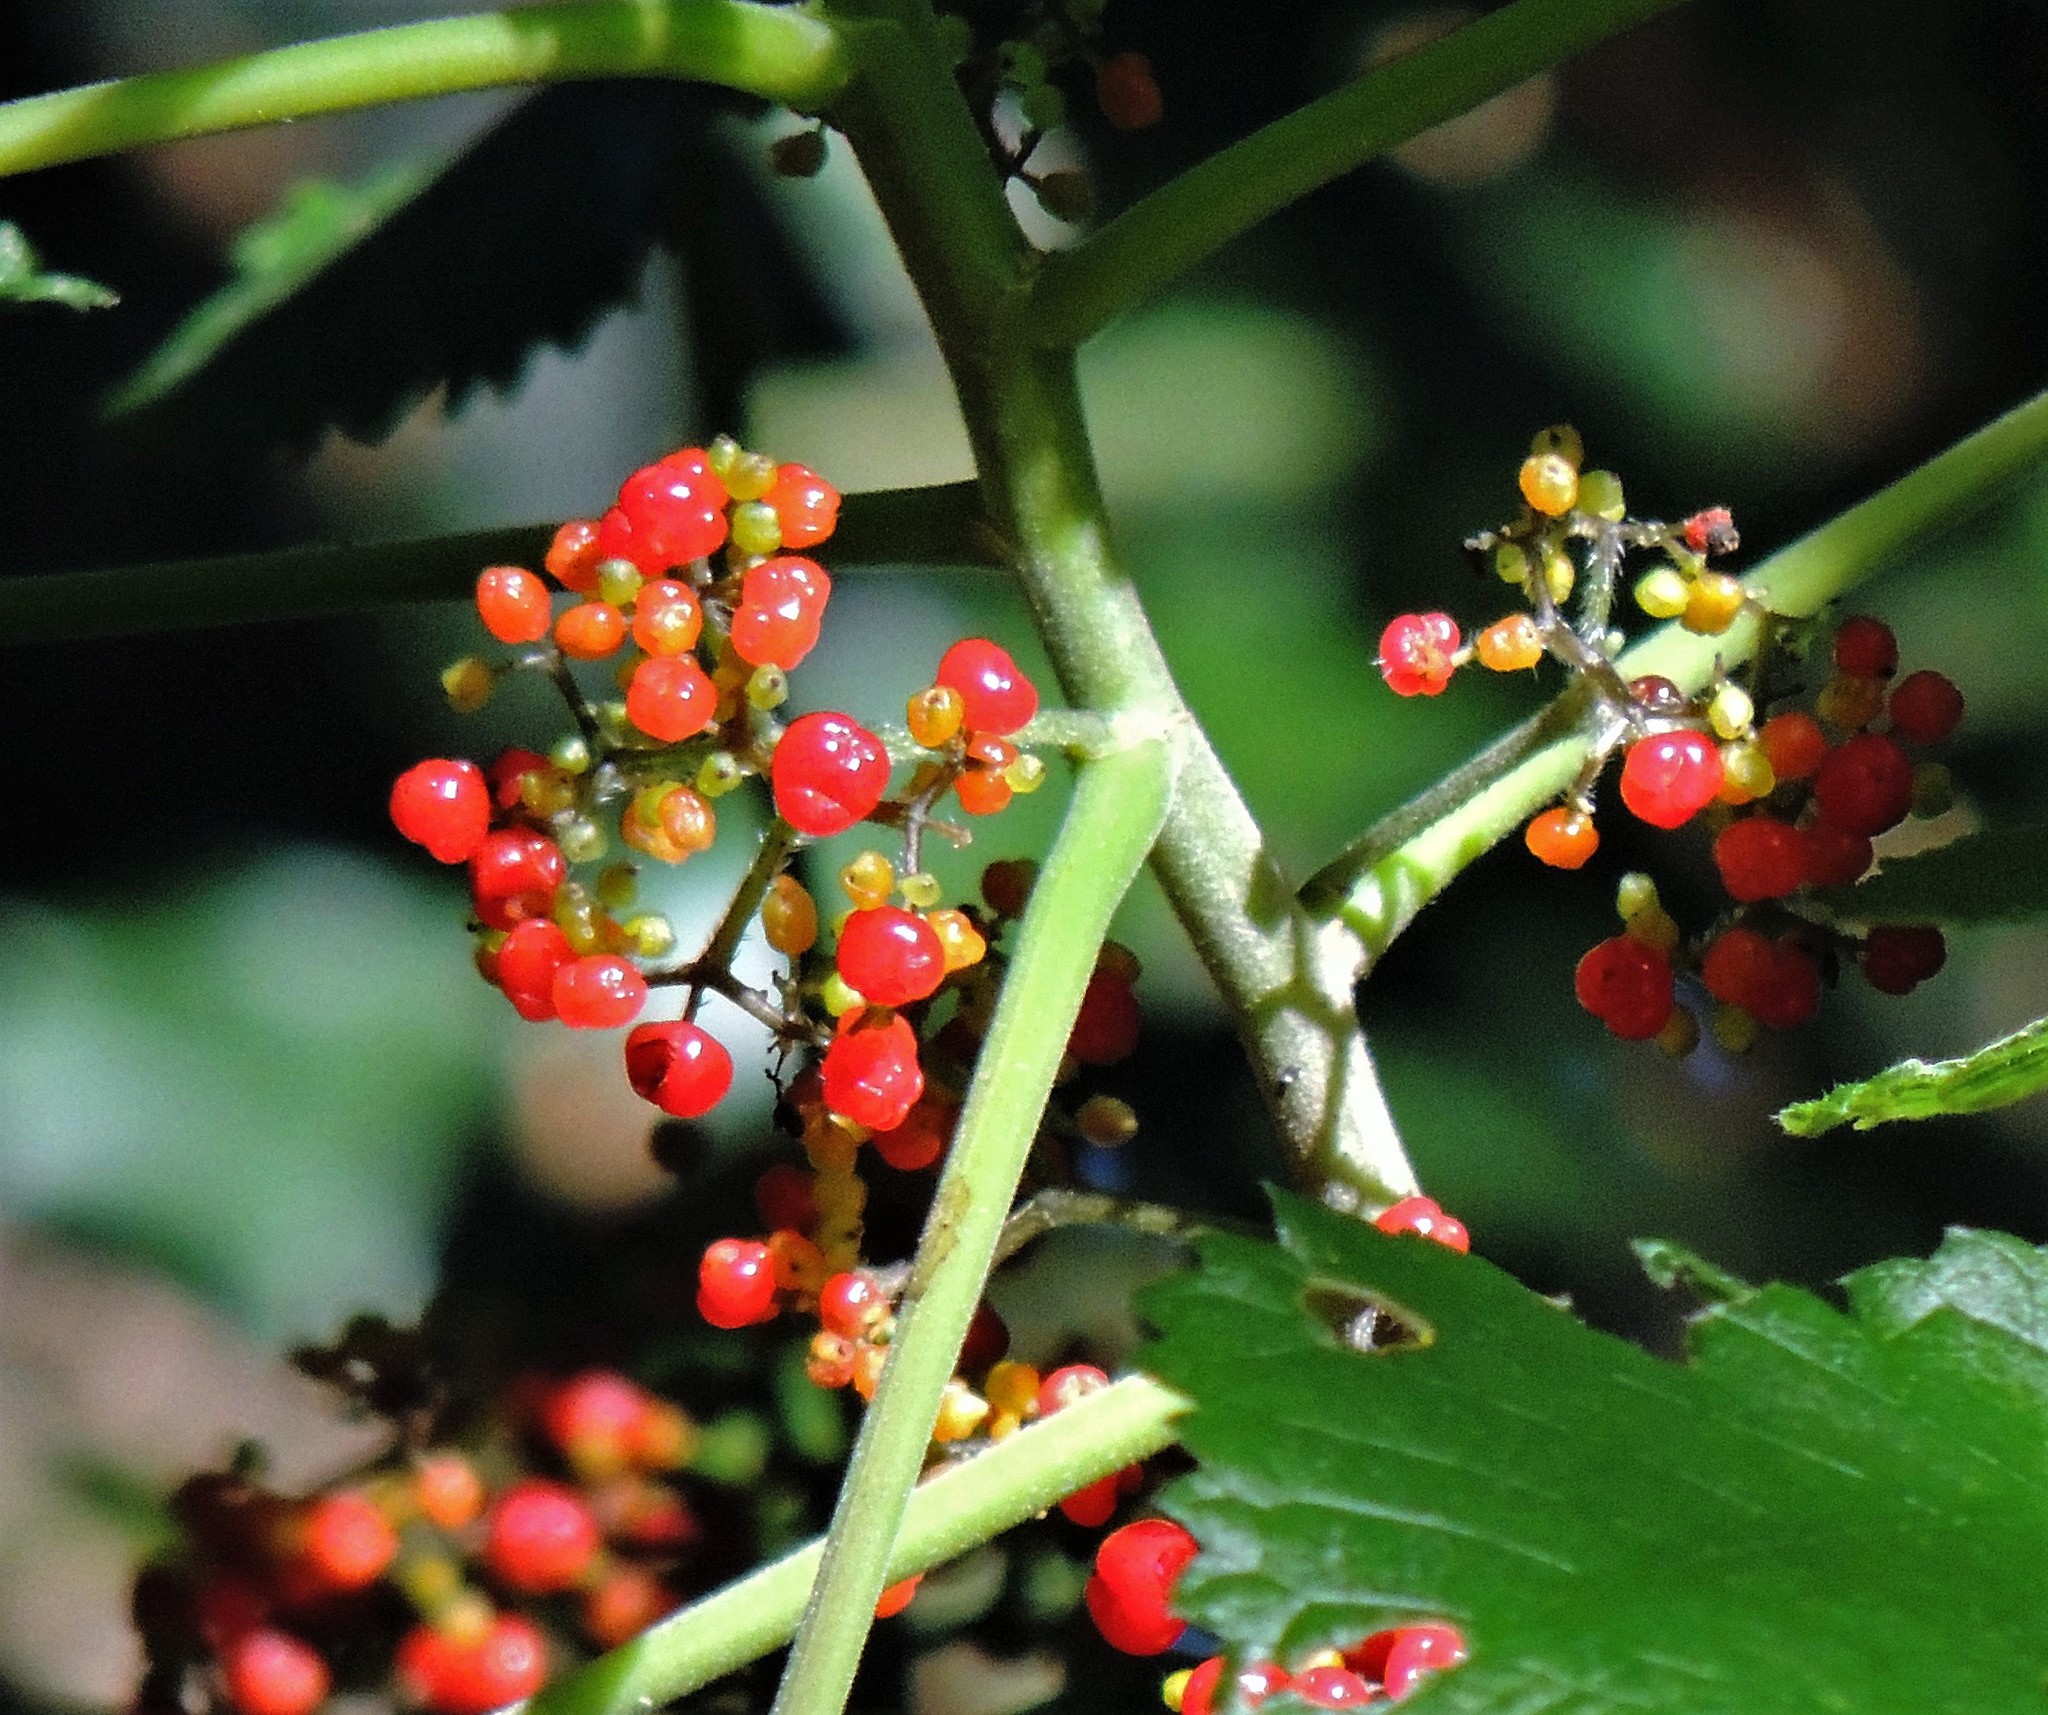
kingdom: Plantae
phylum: Tracheophyta
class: Magnoliopsida
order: Rosales
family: Urticaceae
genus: Urera
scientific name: Urera aurantiaca
